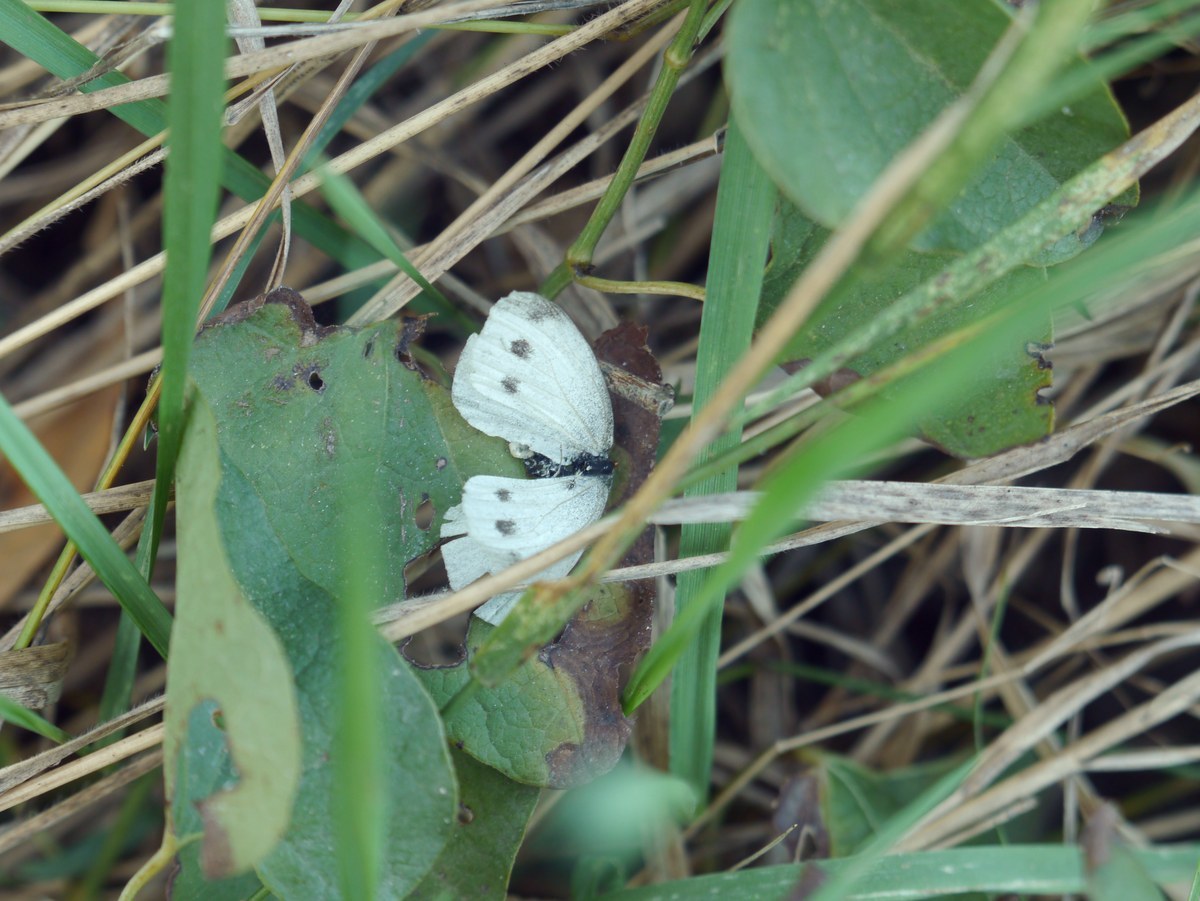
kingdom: Animalia
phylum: Arthropoda
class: Insecta
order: Lepidoptera
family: Pieridae
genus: Pieris
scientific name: Pieris rapae
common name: Small white
